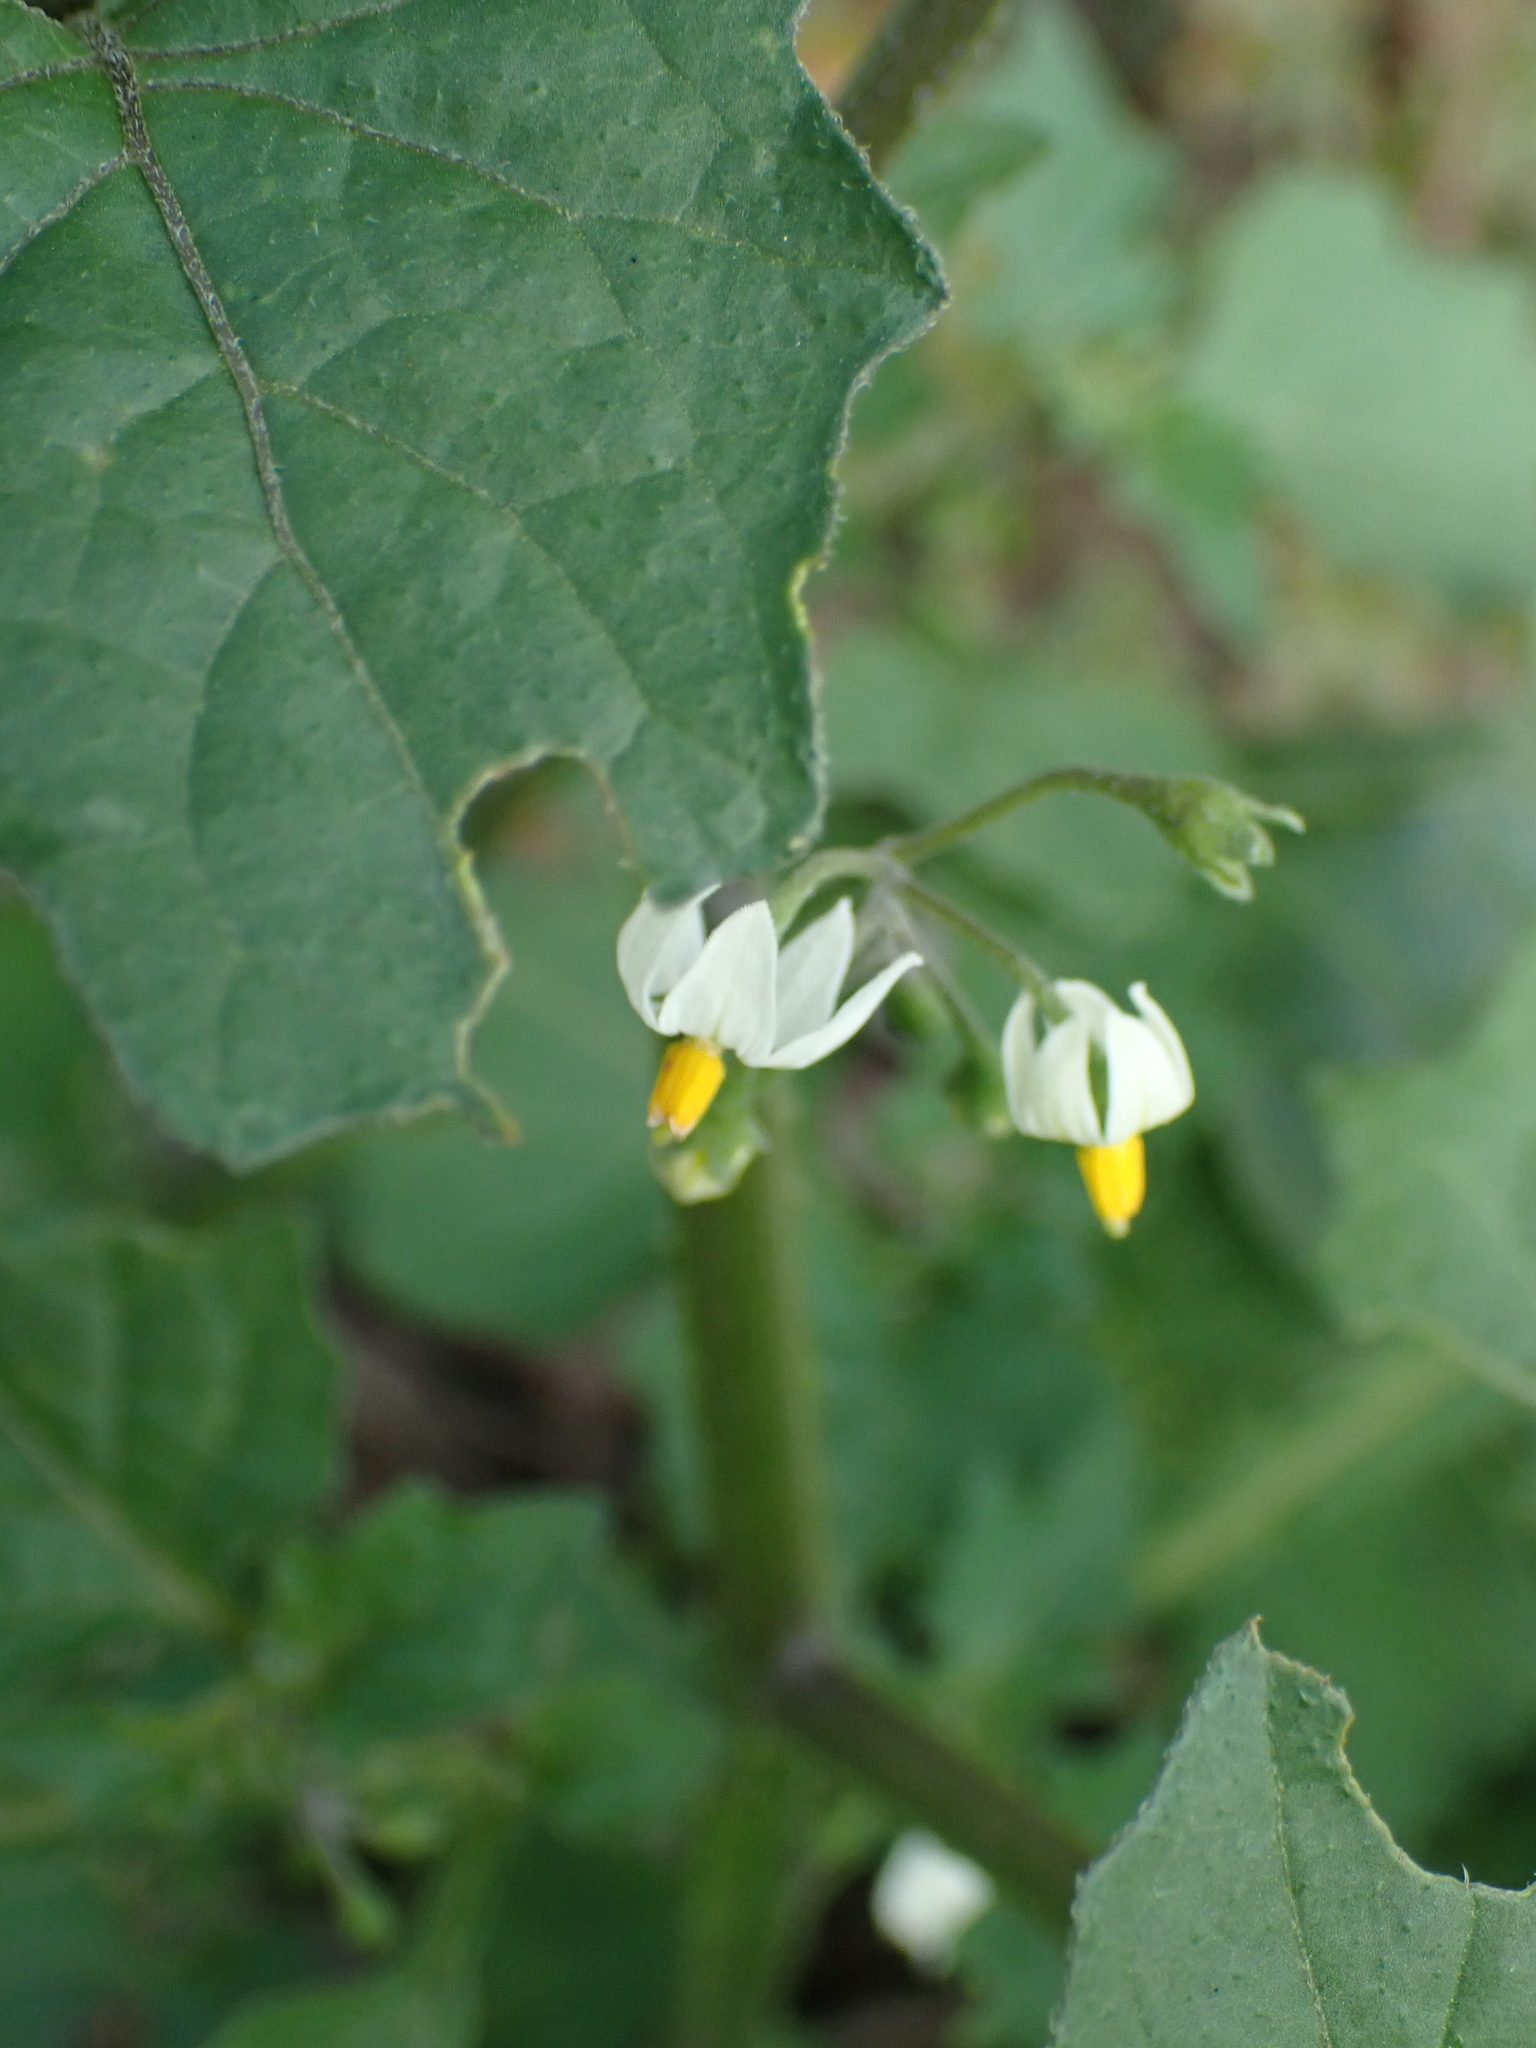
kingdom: Plantae
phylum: Tracheophyta
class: Magnoliopsida
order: Solanales
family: Solanaceae
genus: Solanum
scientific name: Solanum nigrum
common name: Black nightshade
